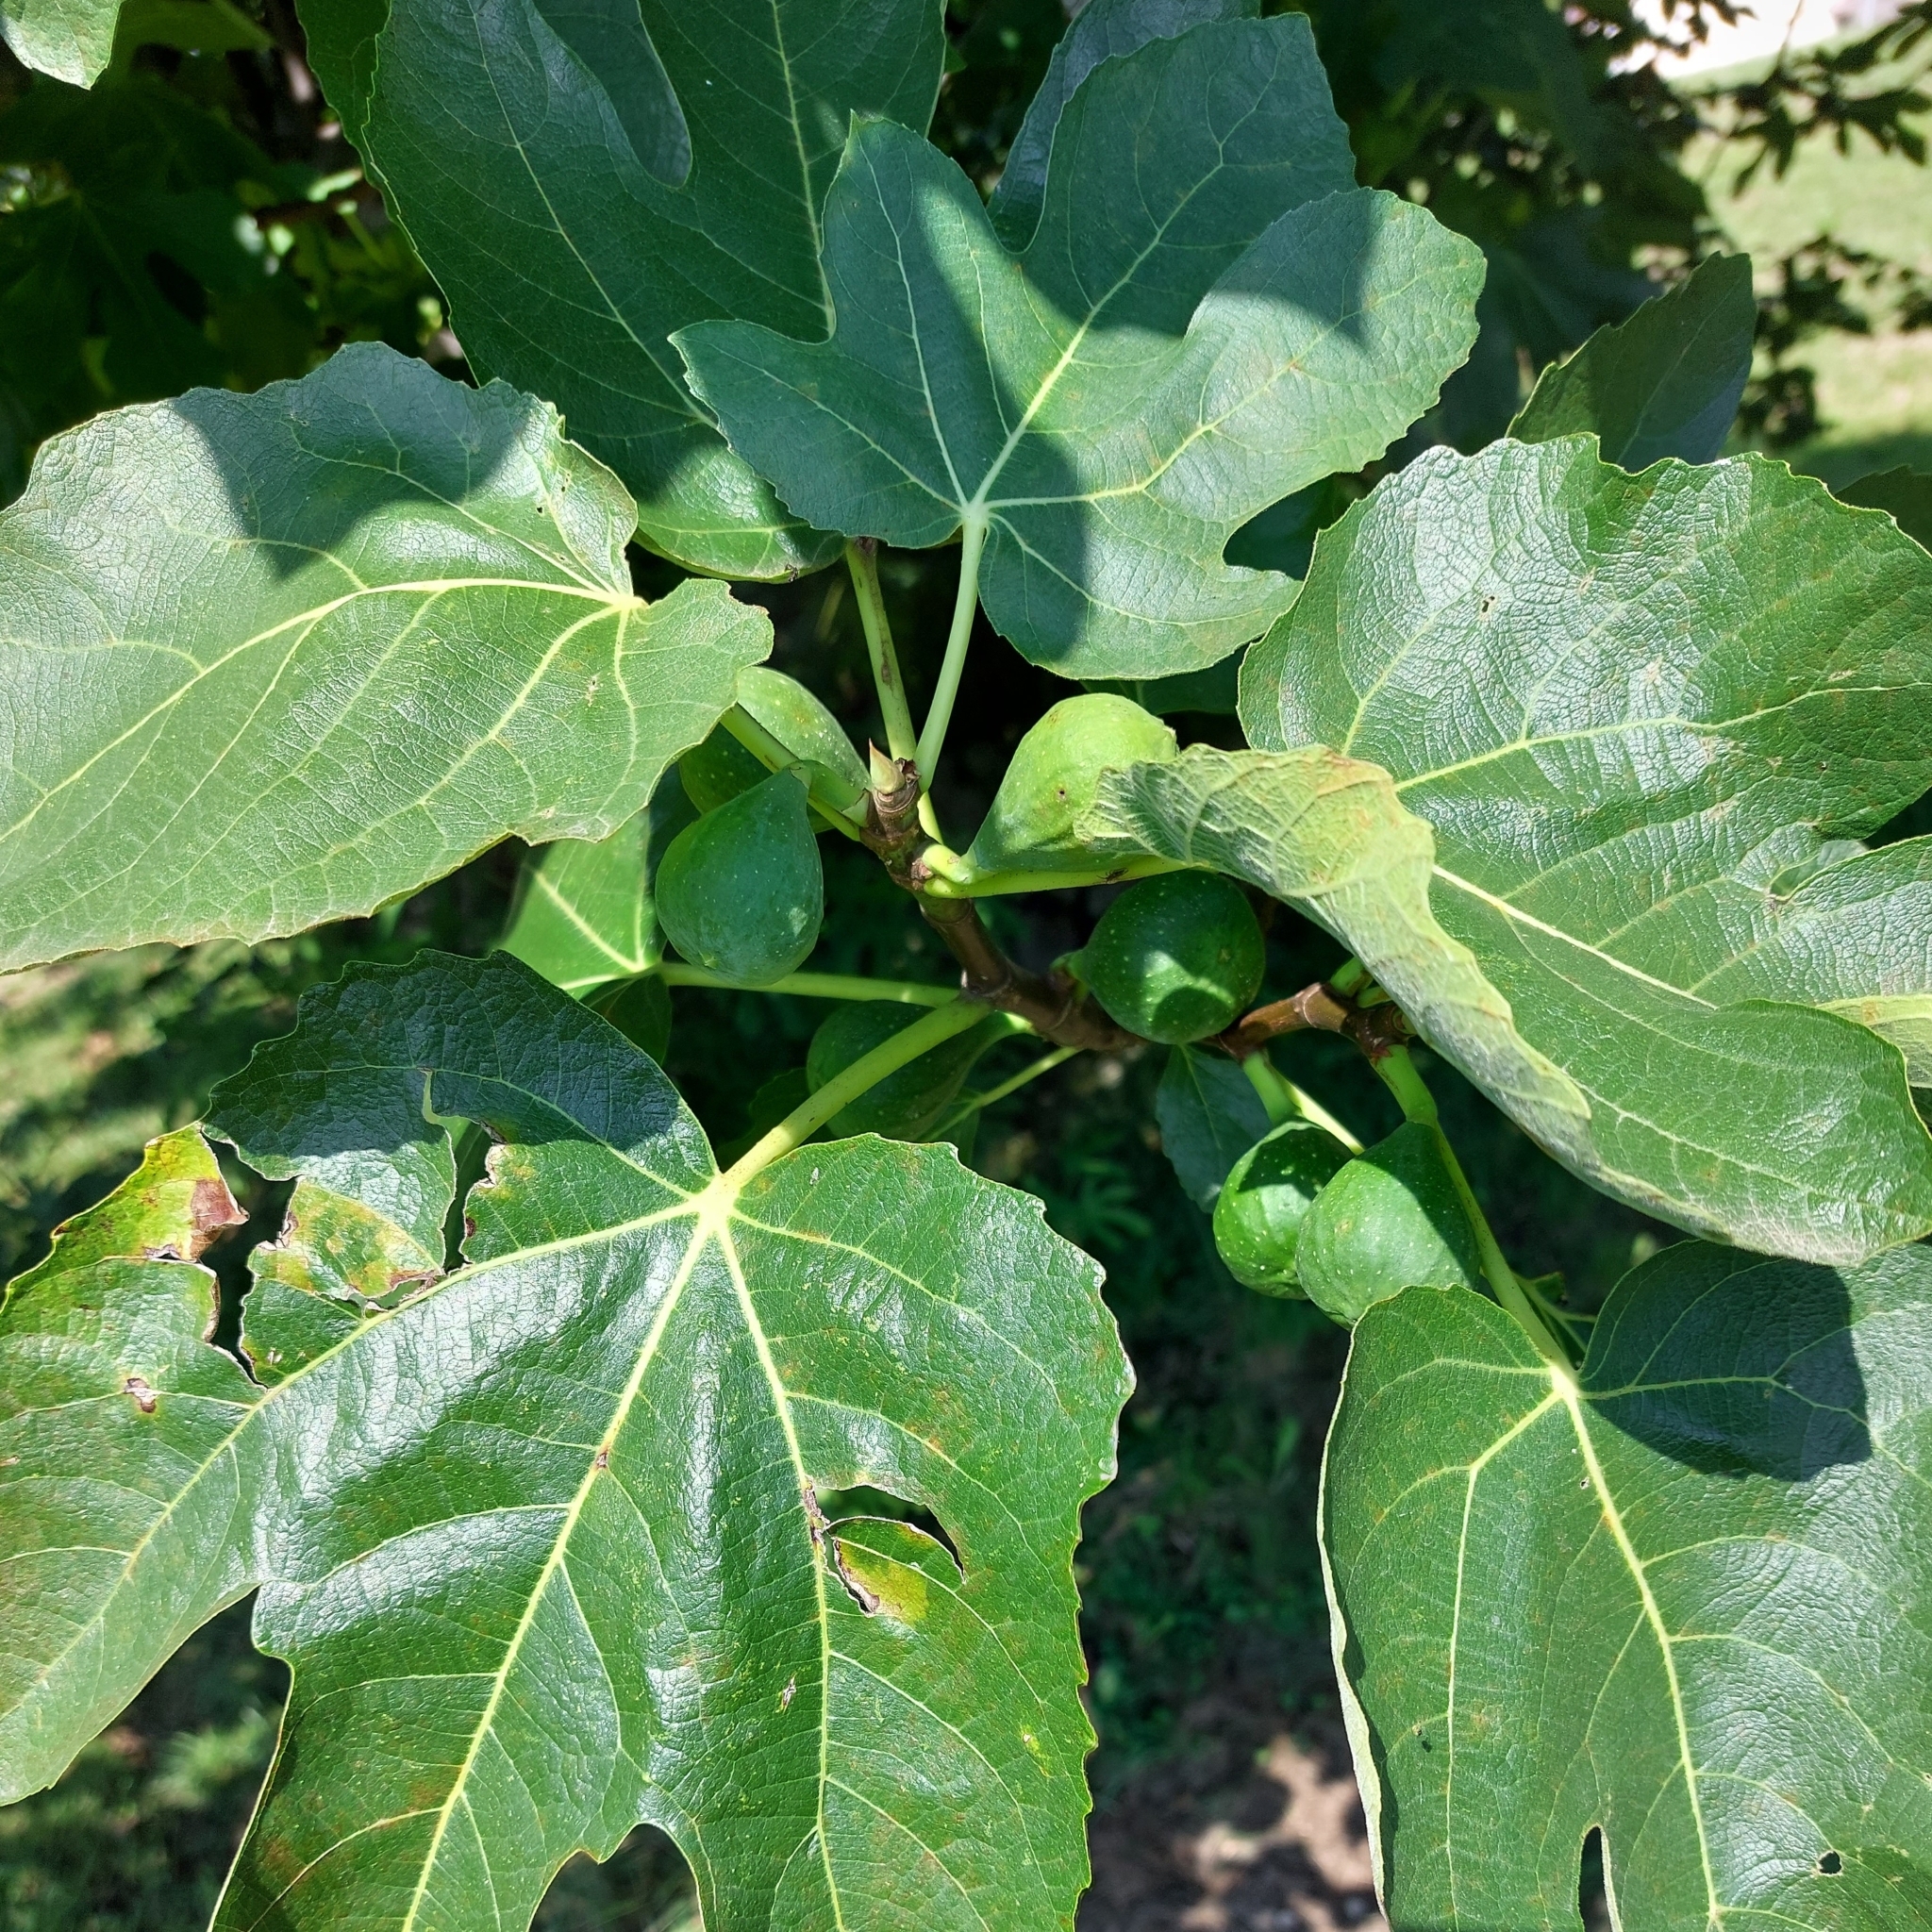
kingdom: Plantae
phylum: Tracheophyta
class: Magnoliopsida
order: Rosales
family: Moraceae
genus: Ficus
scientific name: Ficus carica
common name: Fig
